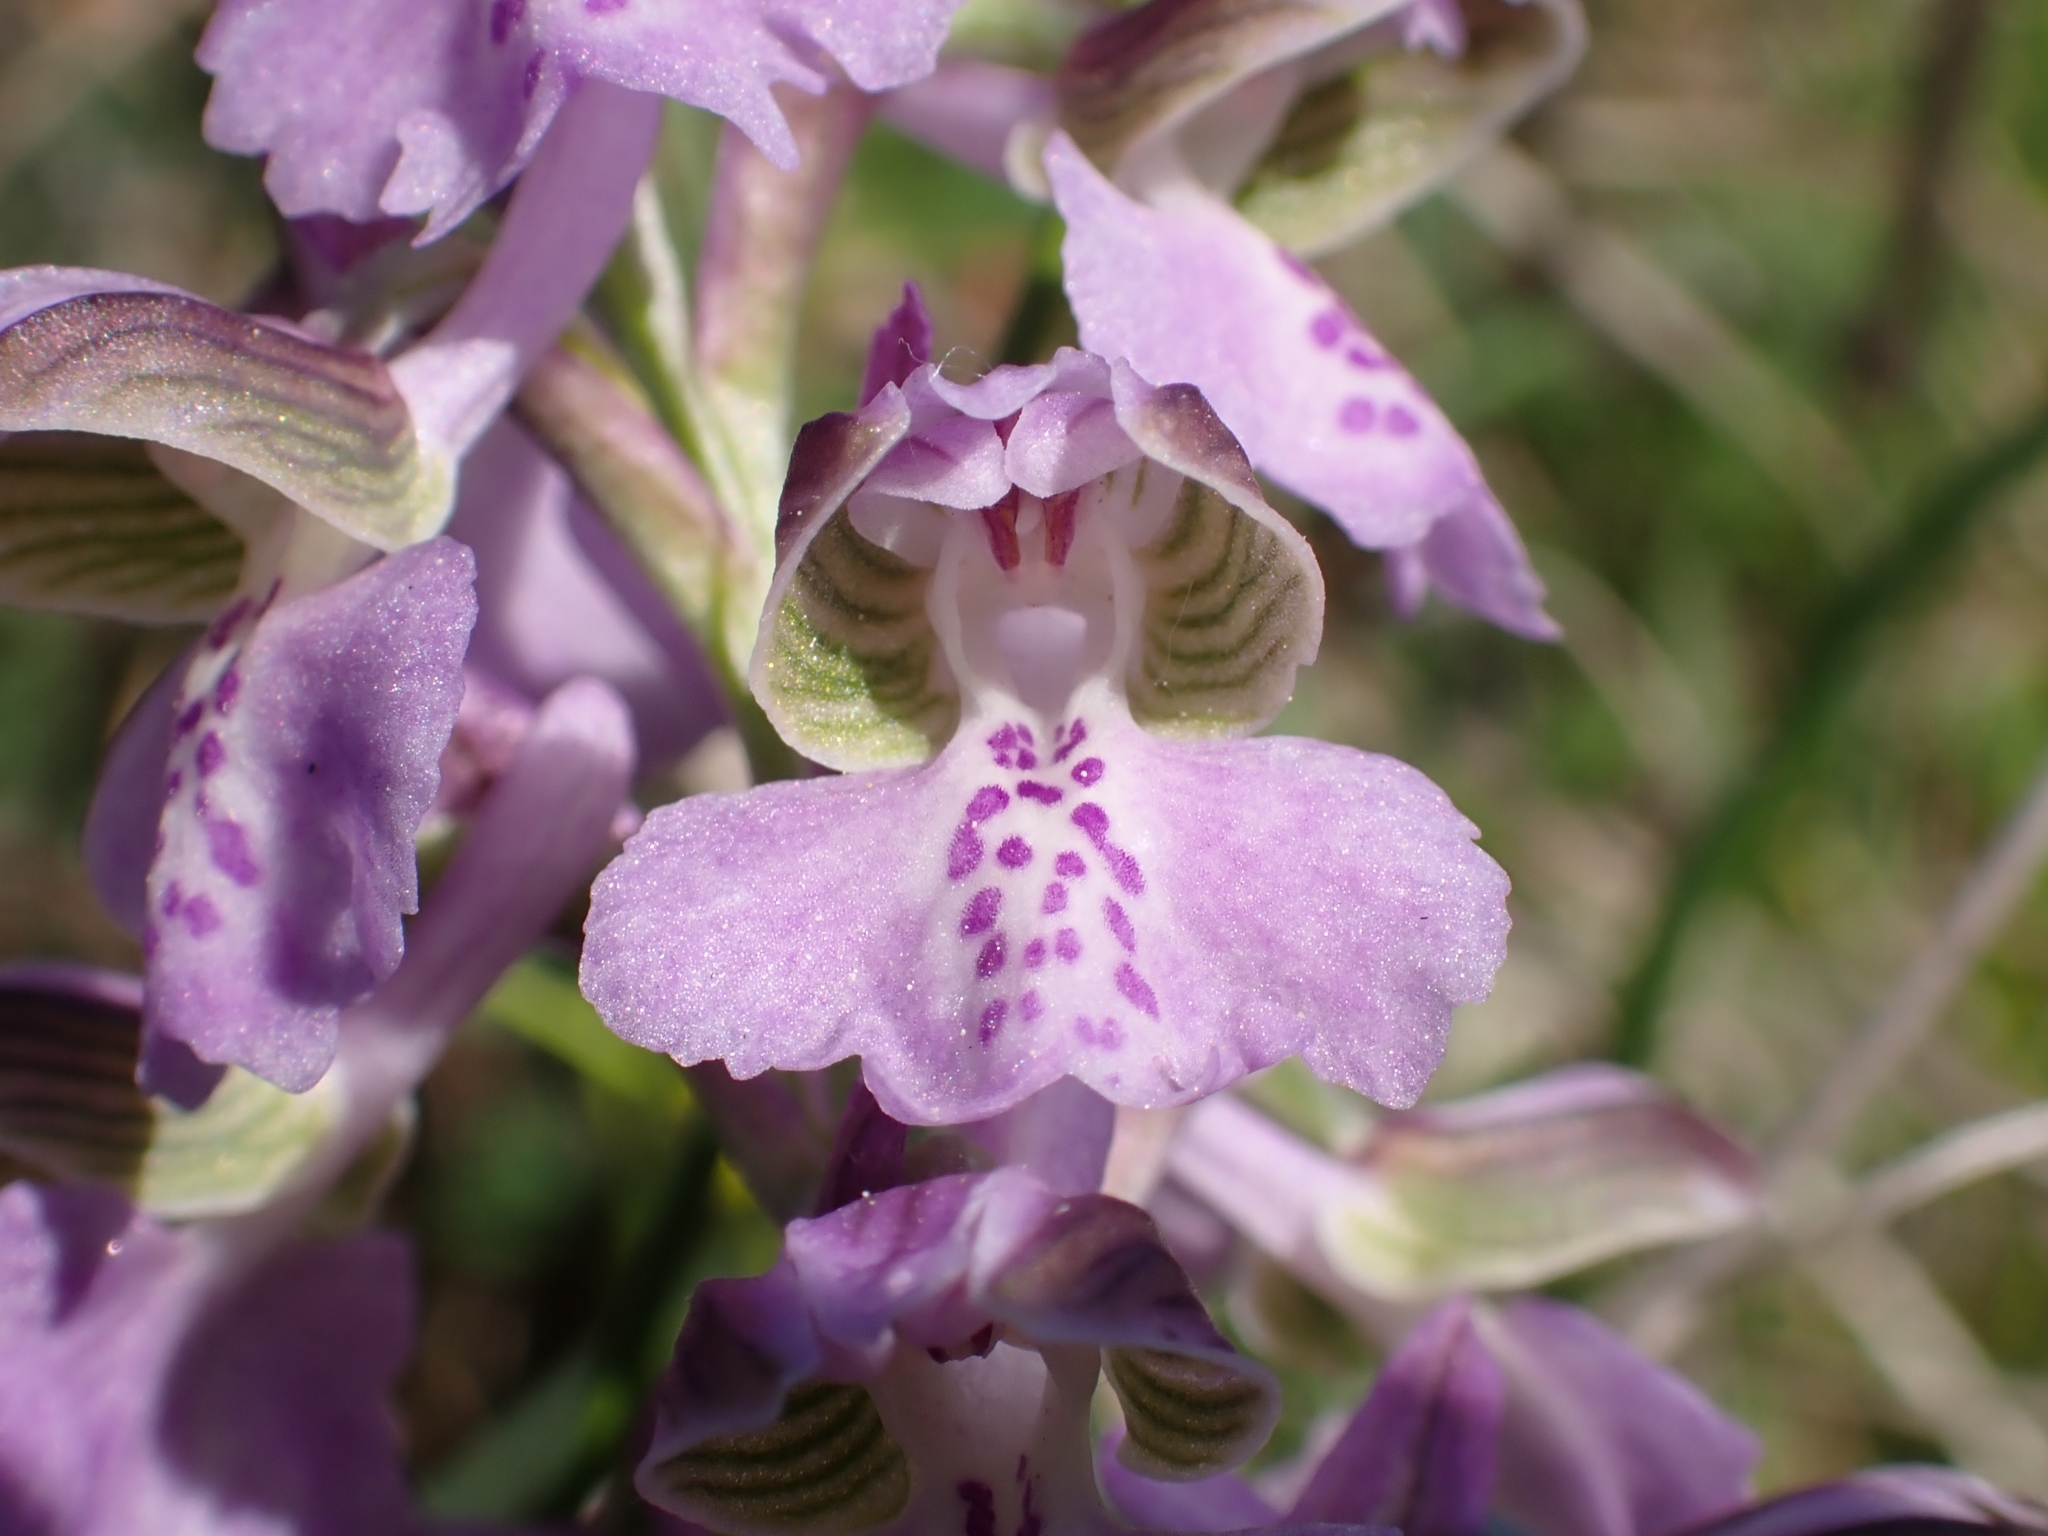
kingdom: Plantae
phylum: Tracheophyta
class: Liliopsida
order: Asparagales
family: Orchidaceae
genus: Anacamptis
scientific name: Anacamptis morio
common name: Green-winged orchid
